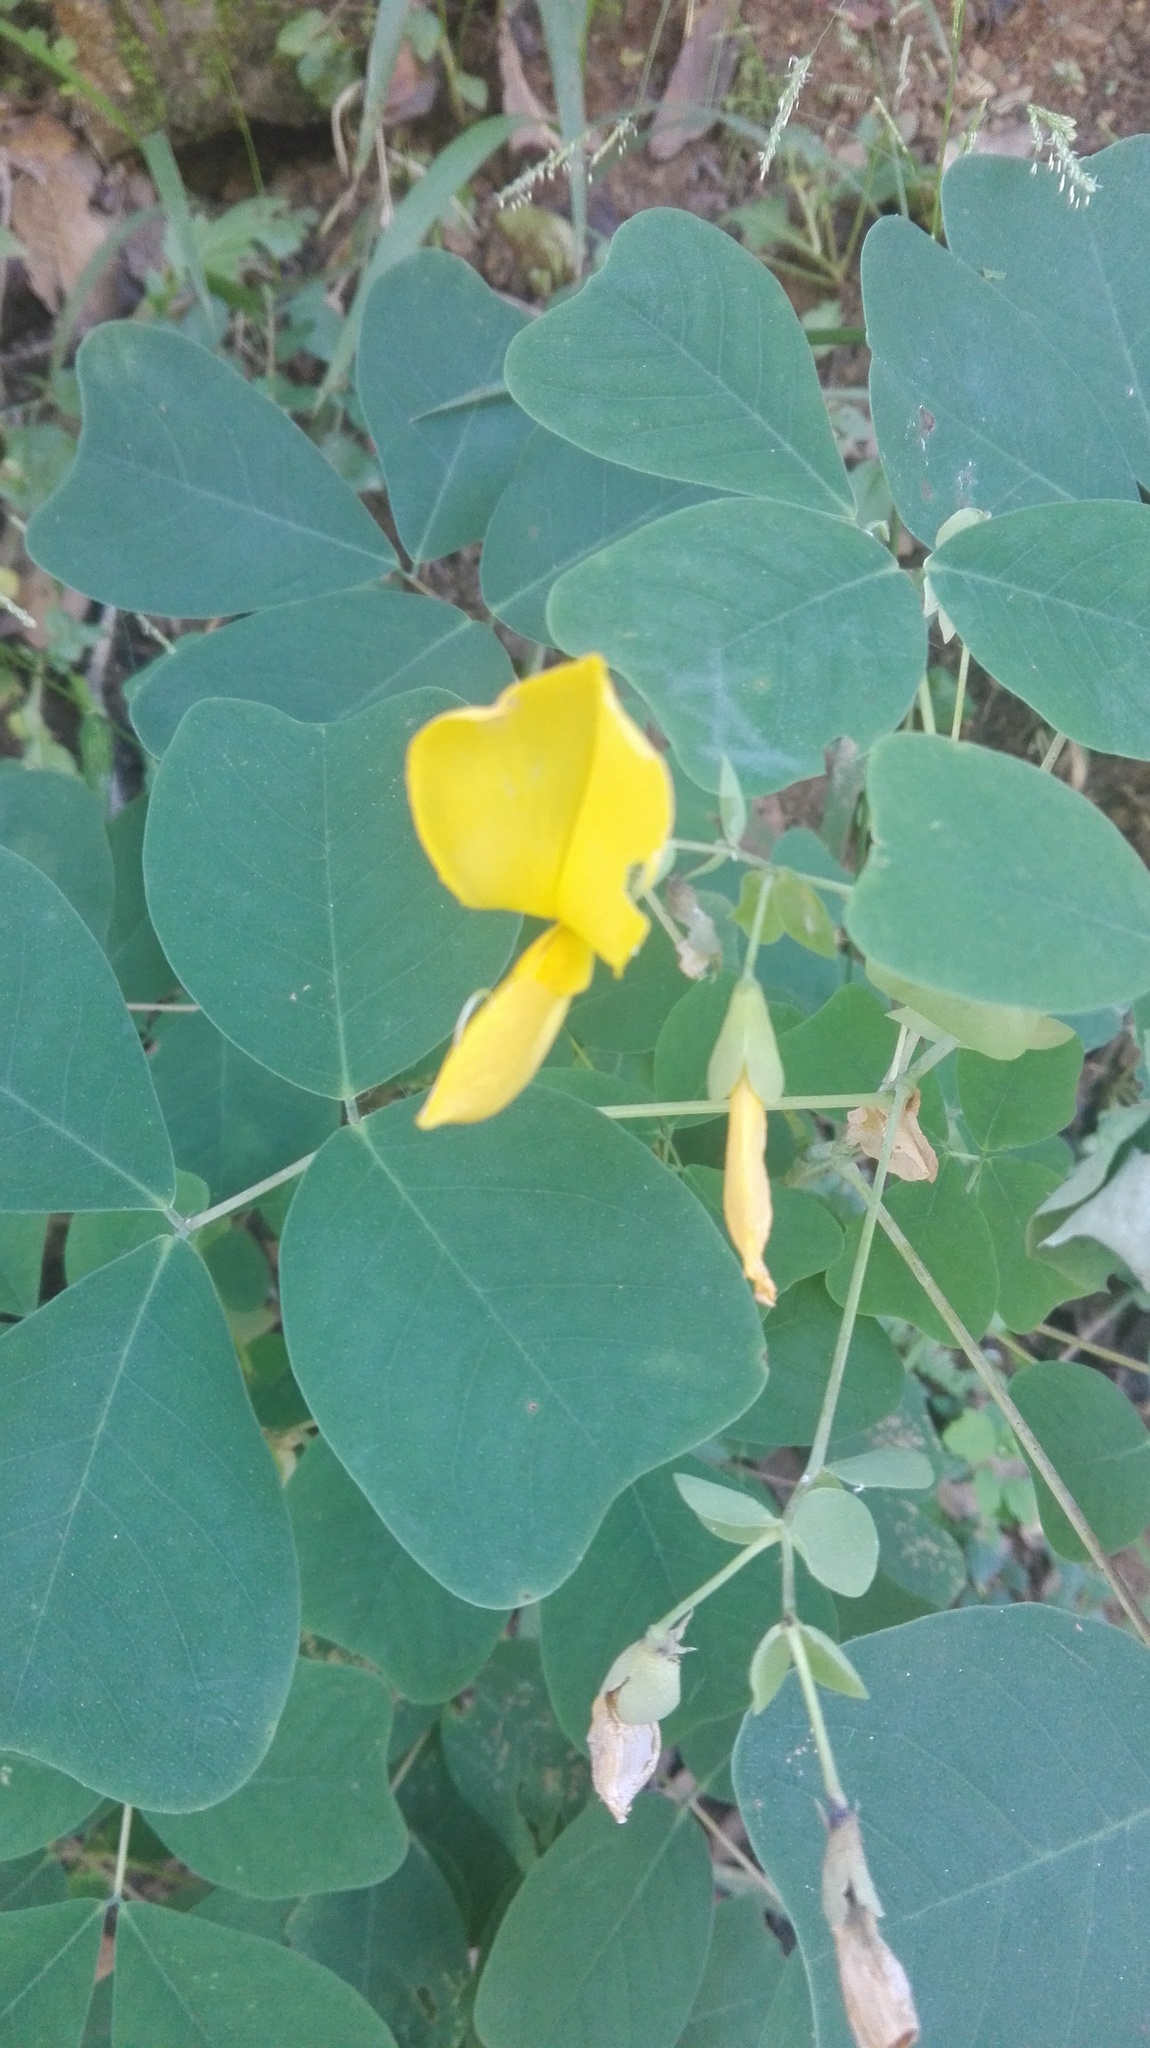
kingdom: Plantae
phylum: Tracheophyta
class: Magnoliopsida
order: Fabales
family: Fabaceae
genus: Amicia
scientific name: Amicia zygomeris
